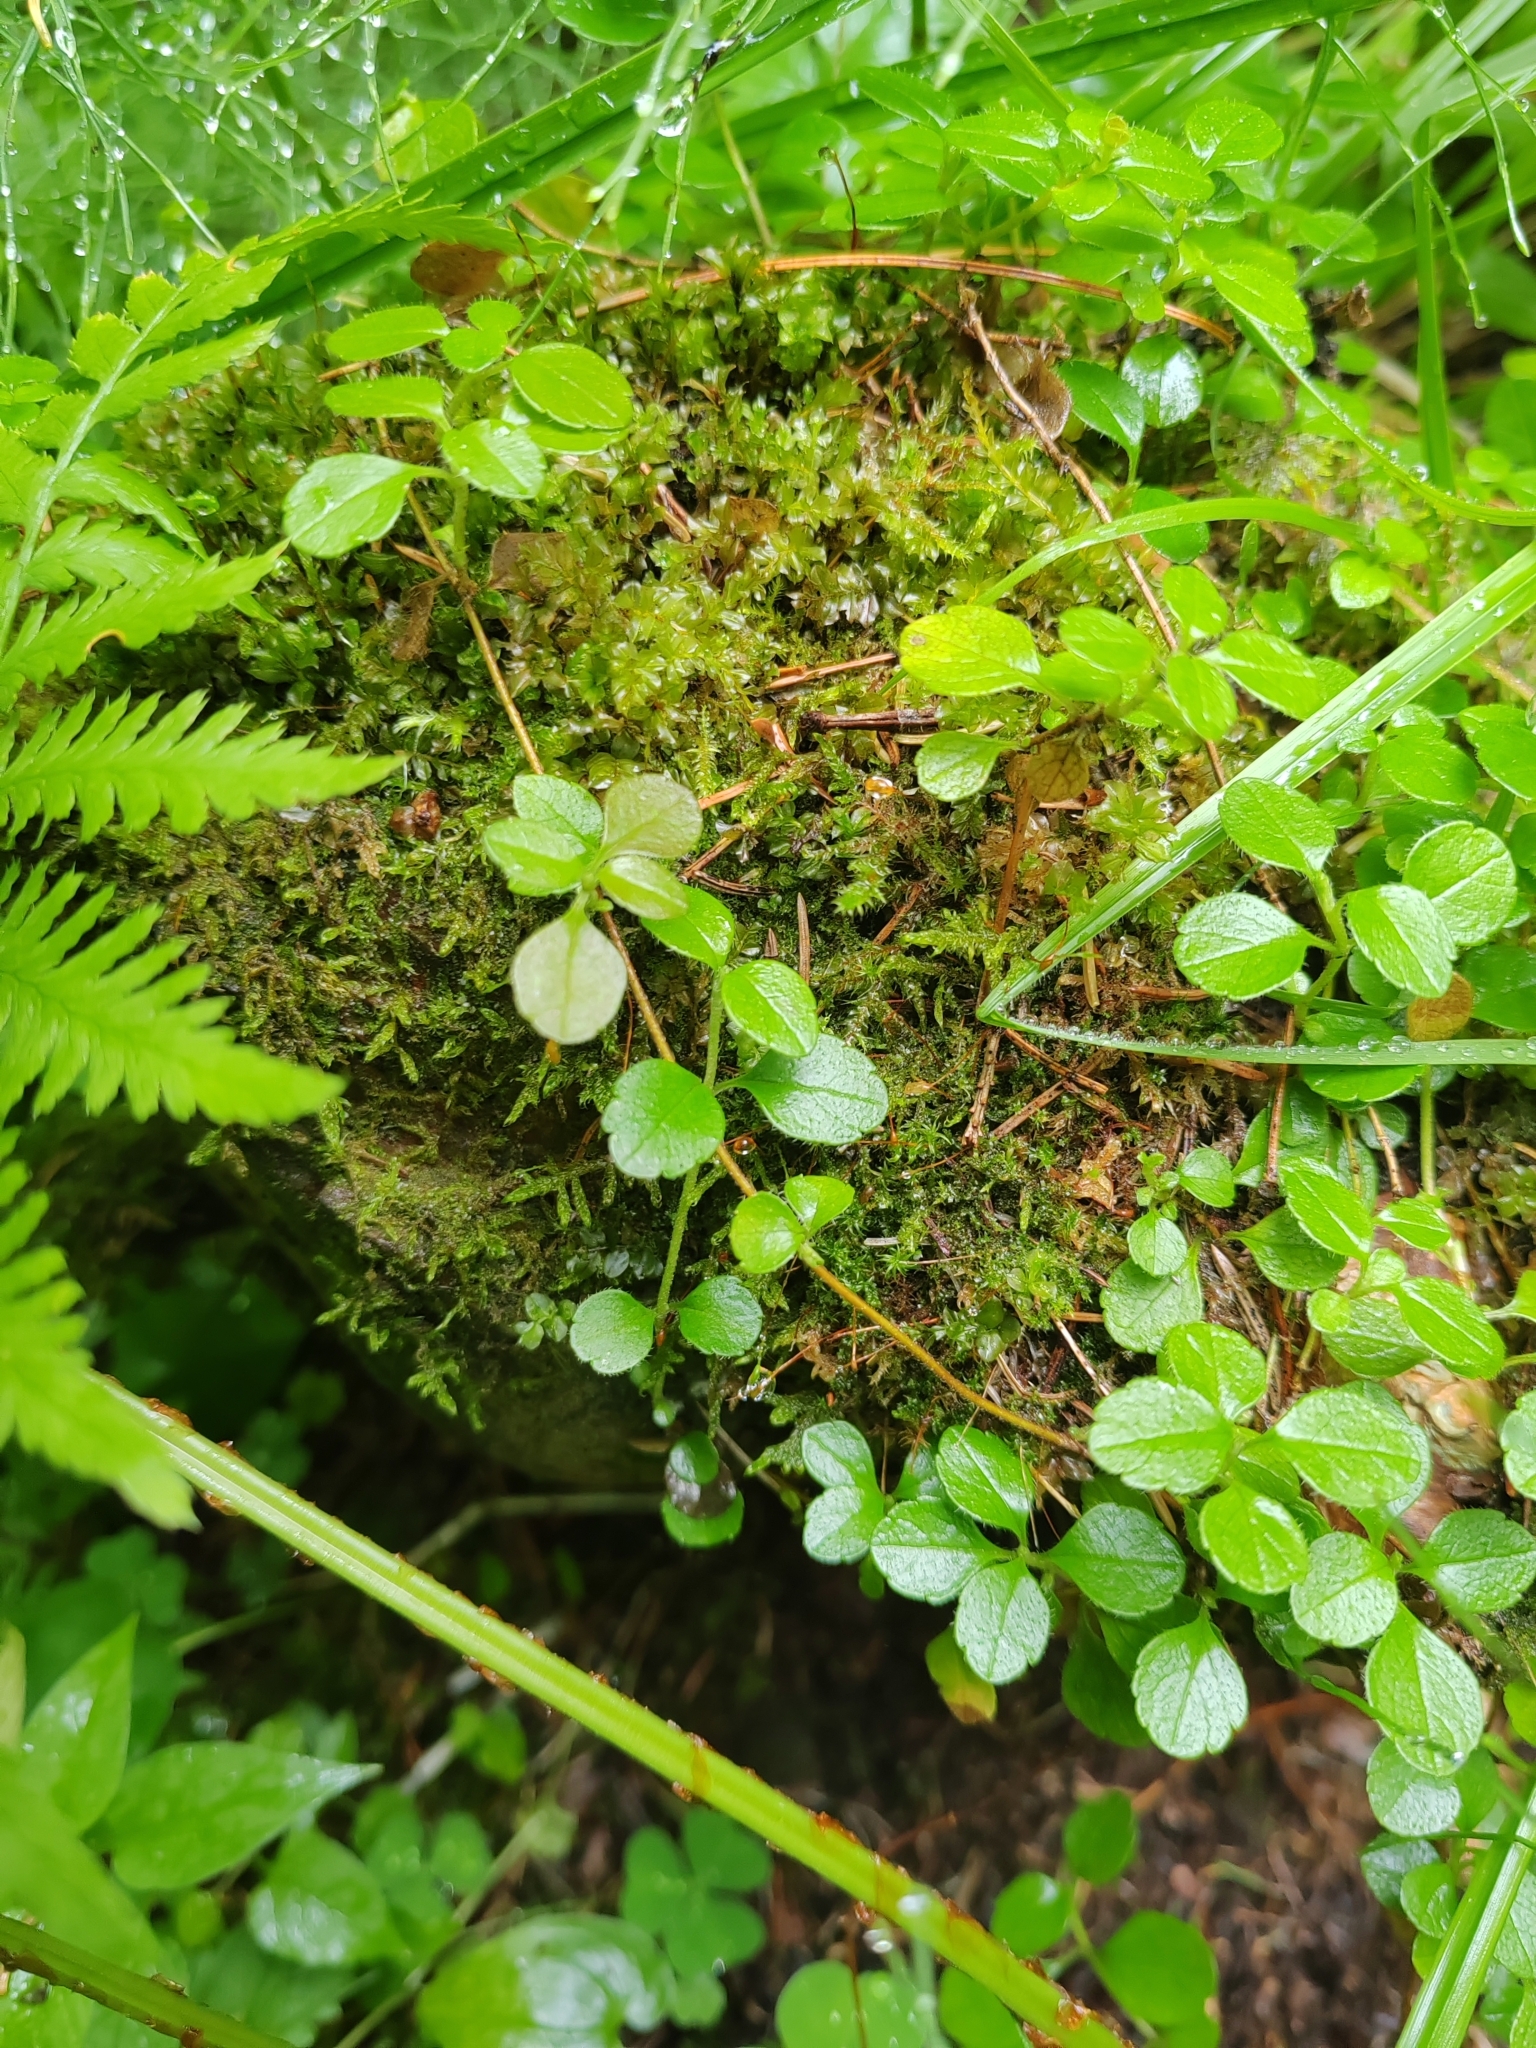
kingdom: Plantae
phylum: Tracheophyta
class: Magnoliopsida
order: Dipsacales
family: Caprifoliaceae
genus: Linnaea
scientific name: Linnaea borealis
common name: Twinflower
